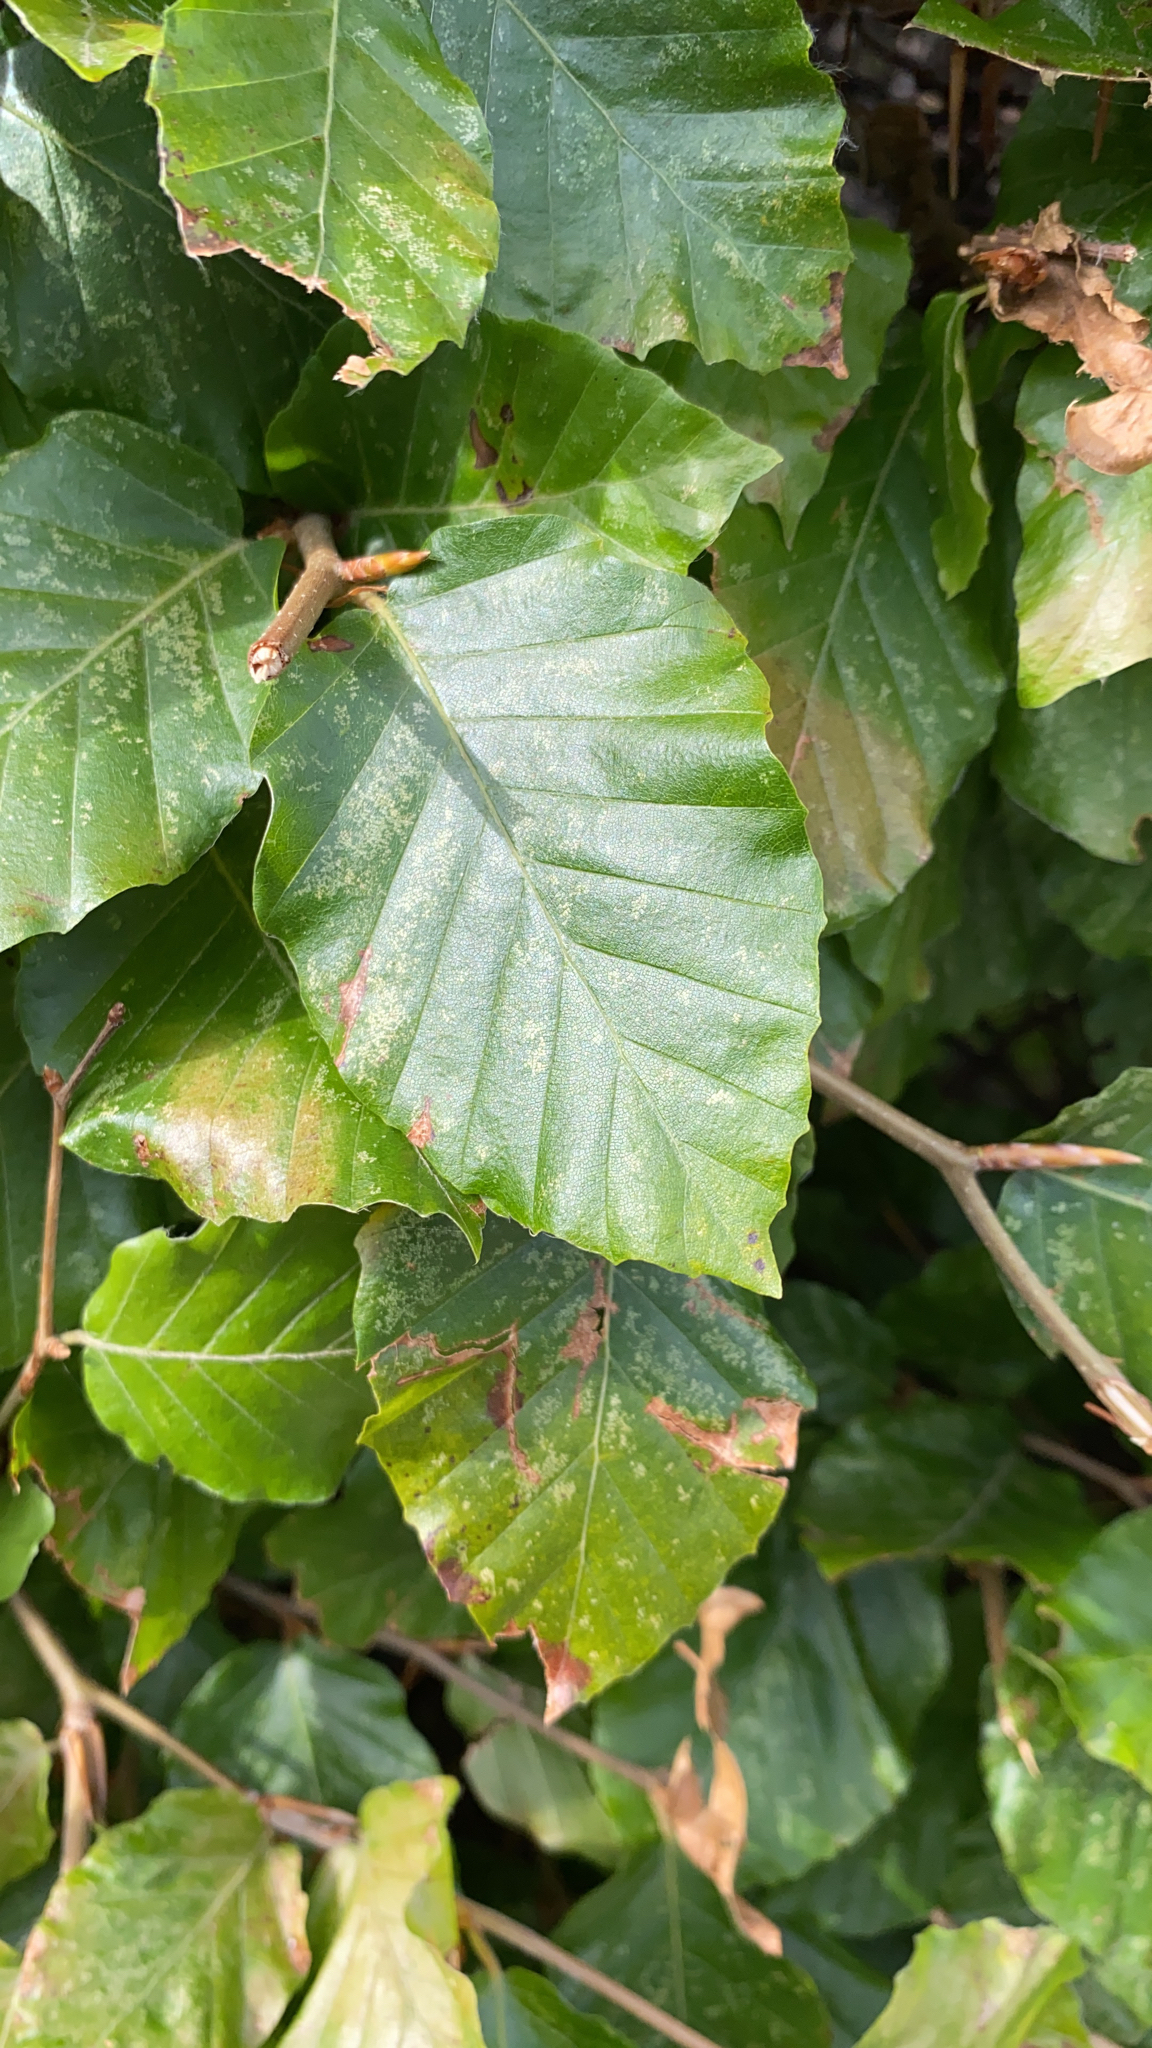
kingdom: Plantae
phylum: Tracheophyta
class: Magnoliopsida
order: Fagales
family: Fagaceae
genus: Fagus
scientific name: Fagus sylvatica
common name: Beech
